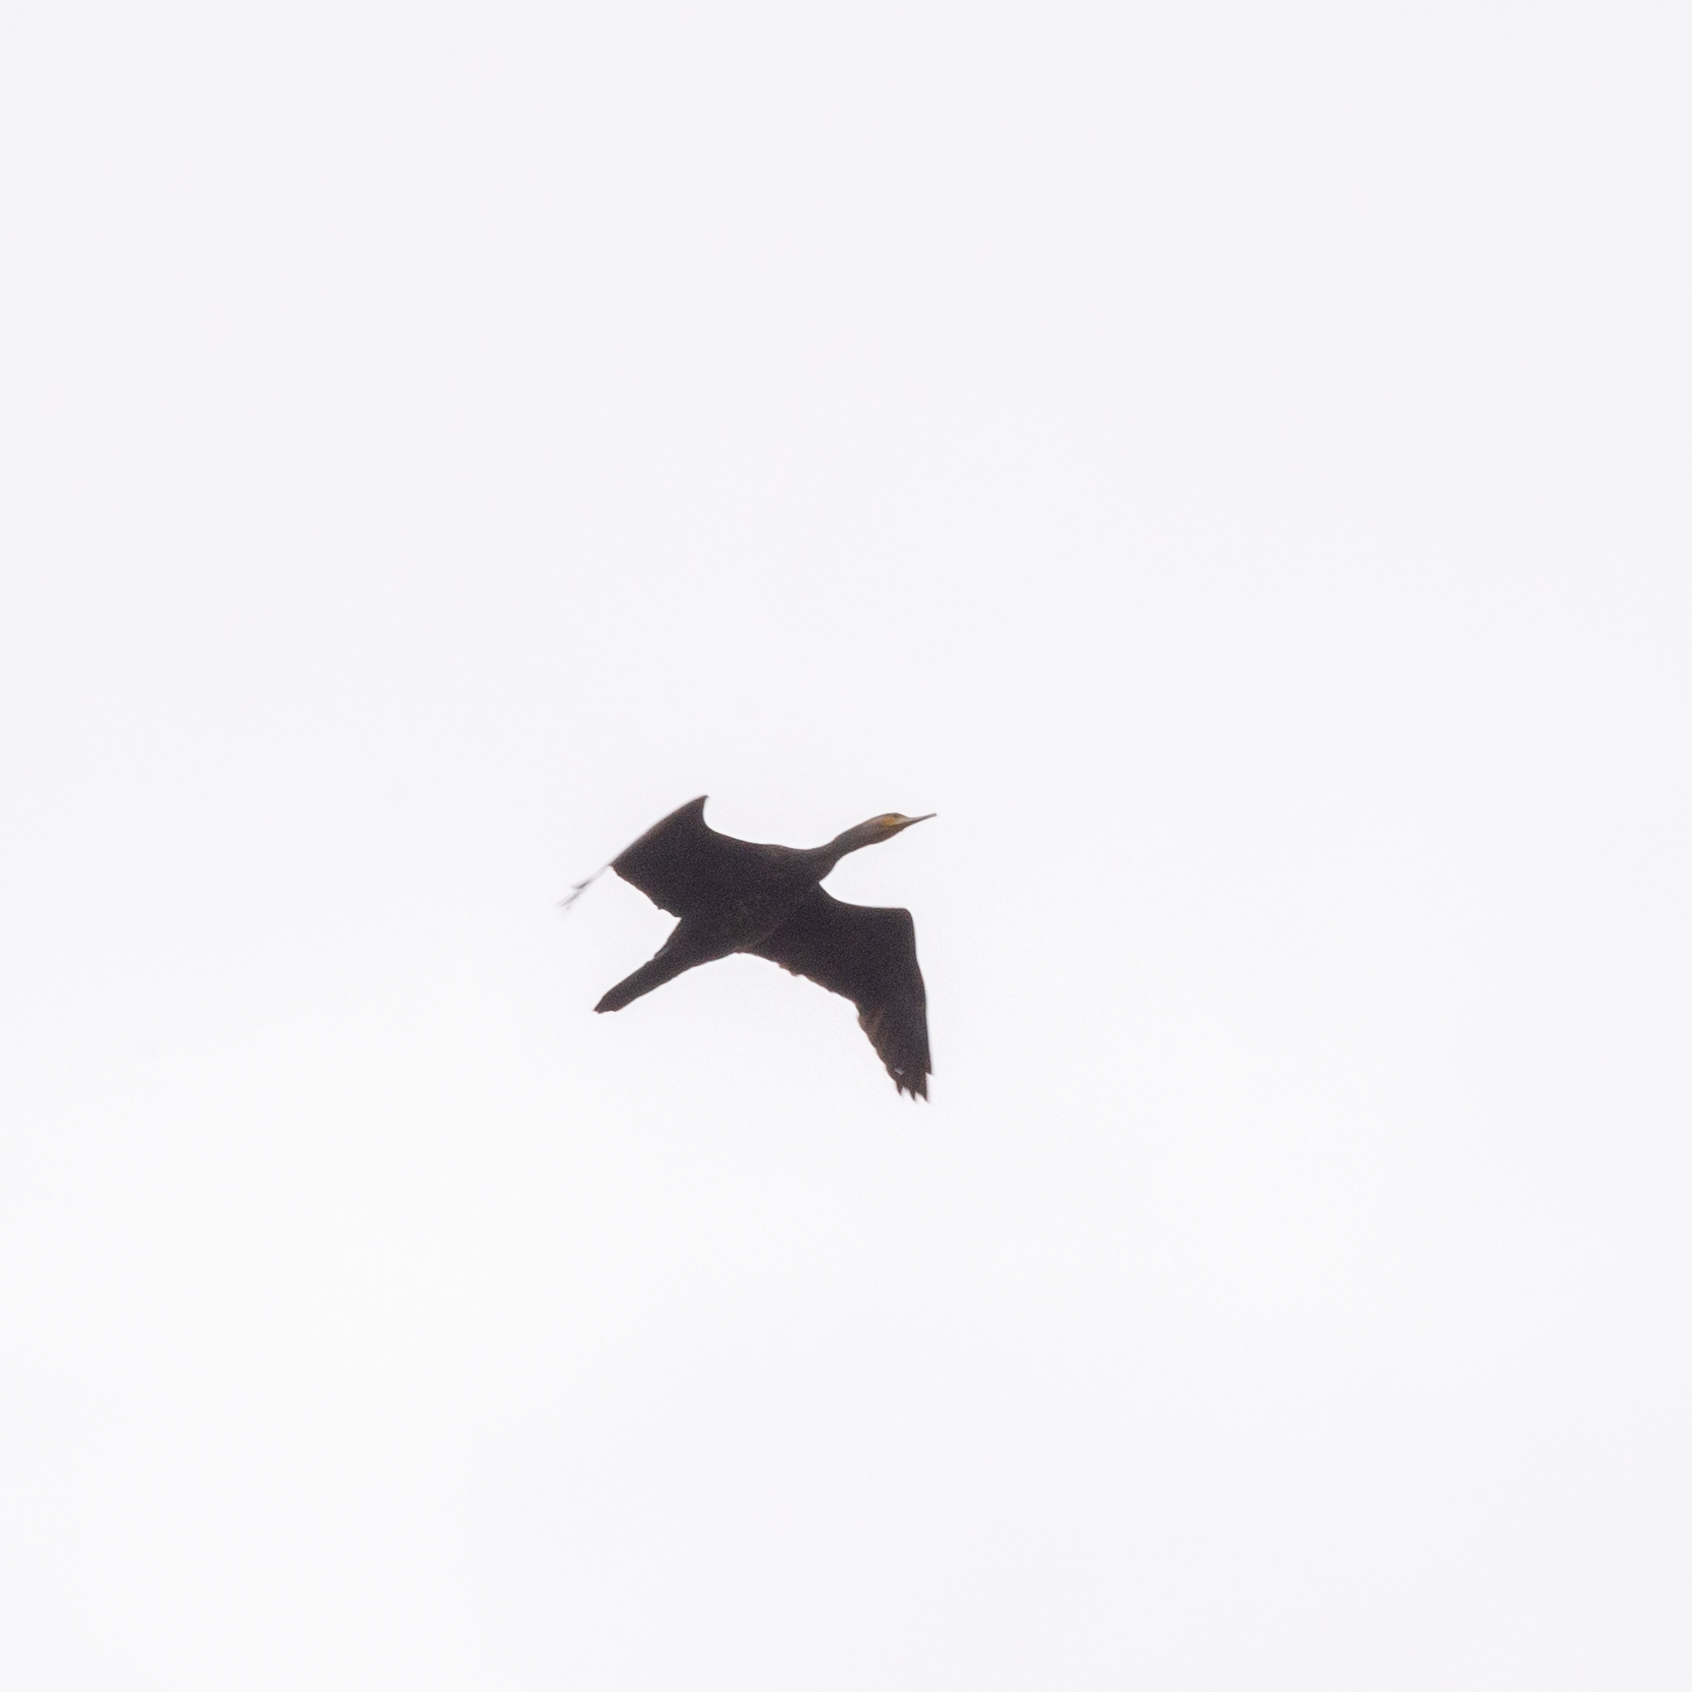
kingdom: Animalia
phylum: Chordata
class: Aves
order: Suliformes
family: Phalacrocoracidae
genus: Phalacrocorax
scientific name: Phalacrocorax carbo
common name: Great cormorant
